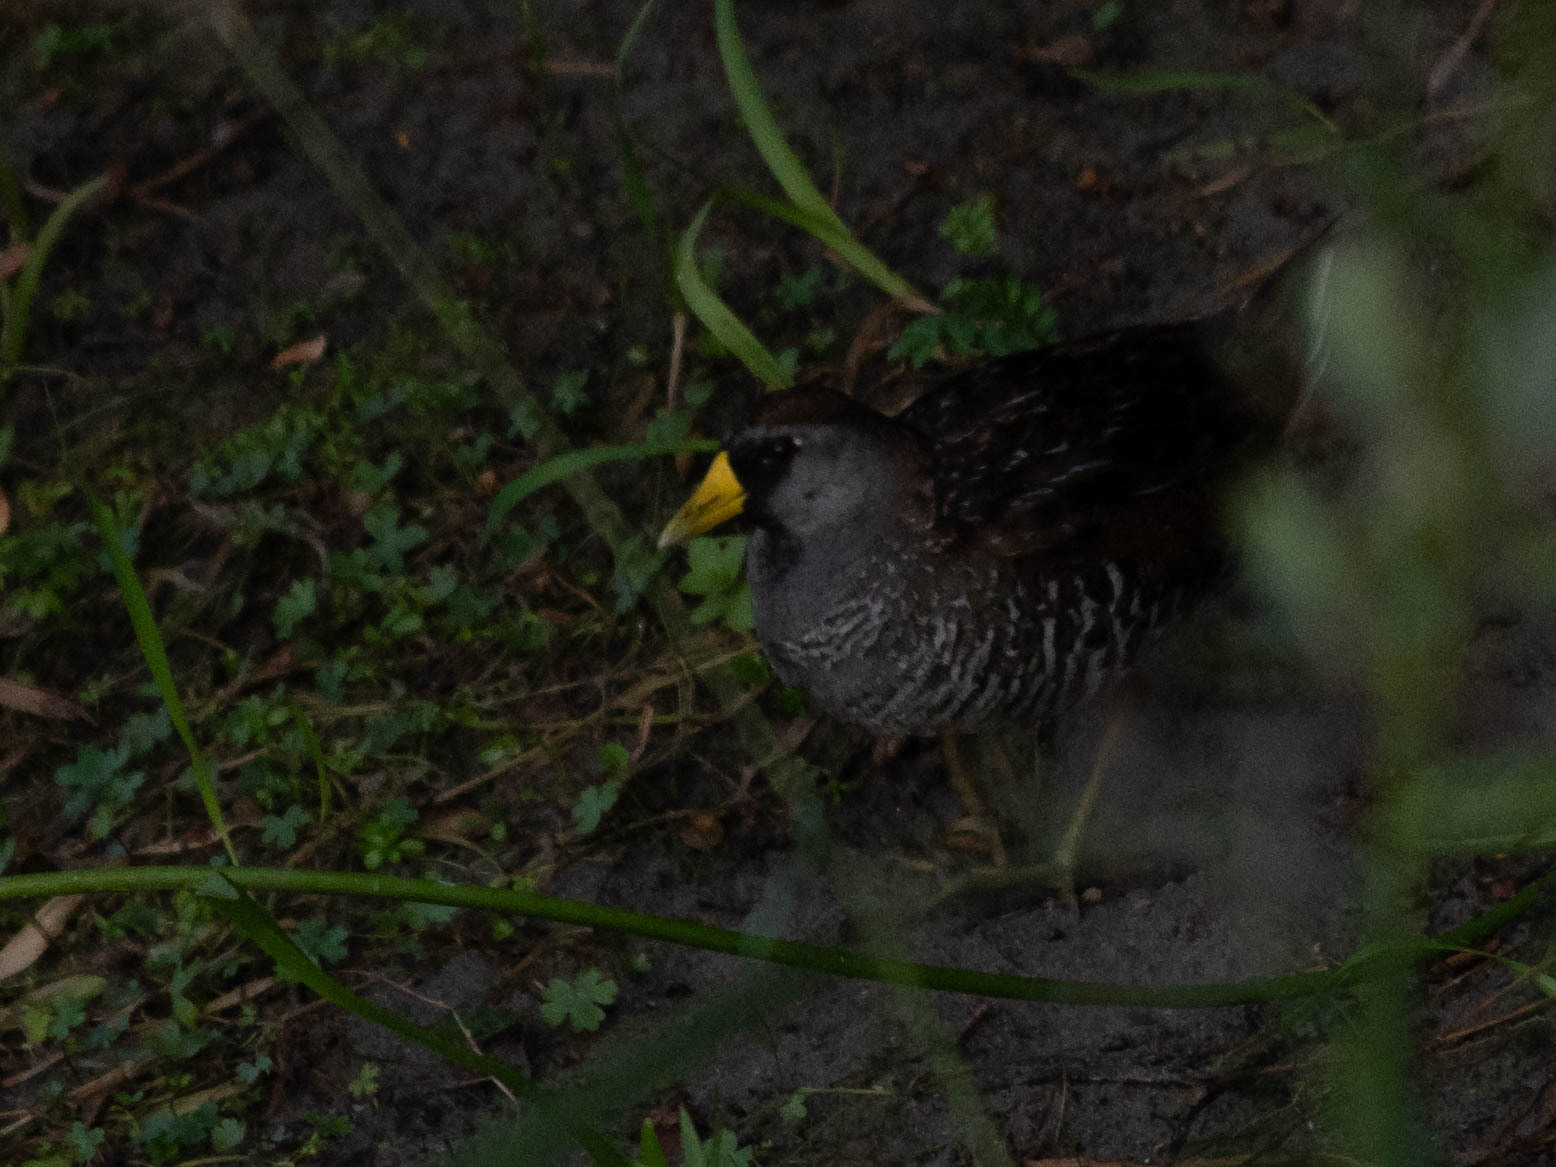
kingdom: Animalia
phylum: Chordata
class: Aves
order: Gruiformes
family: Rallidae
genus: Porzana
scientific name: Porzana carolina
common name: Sora
